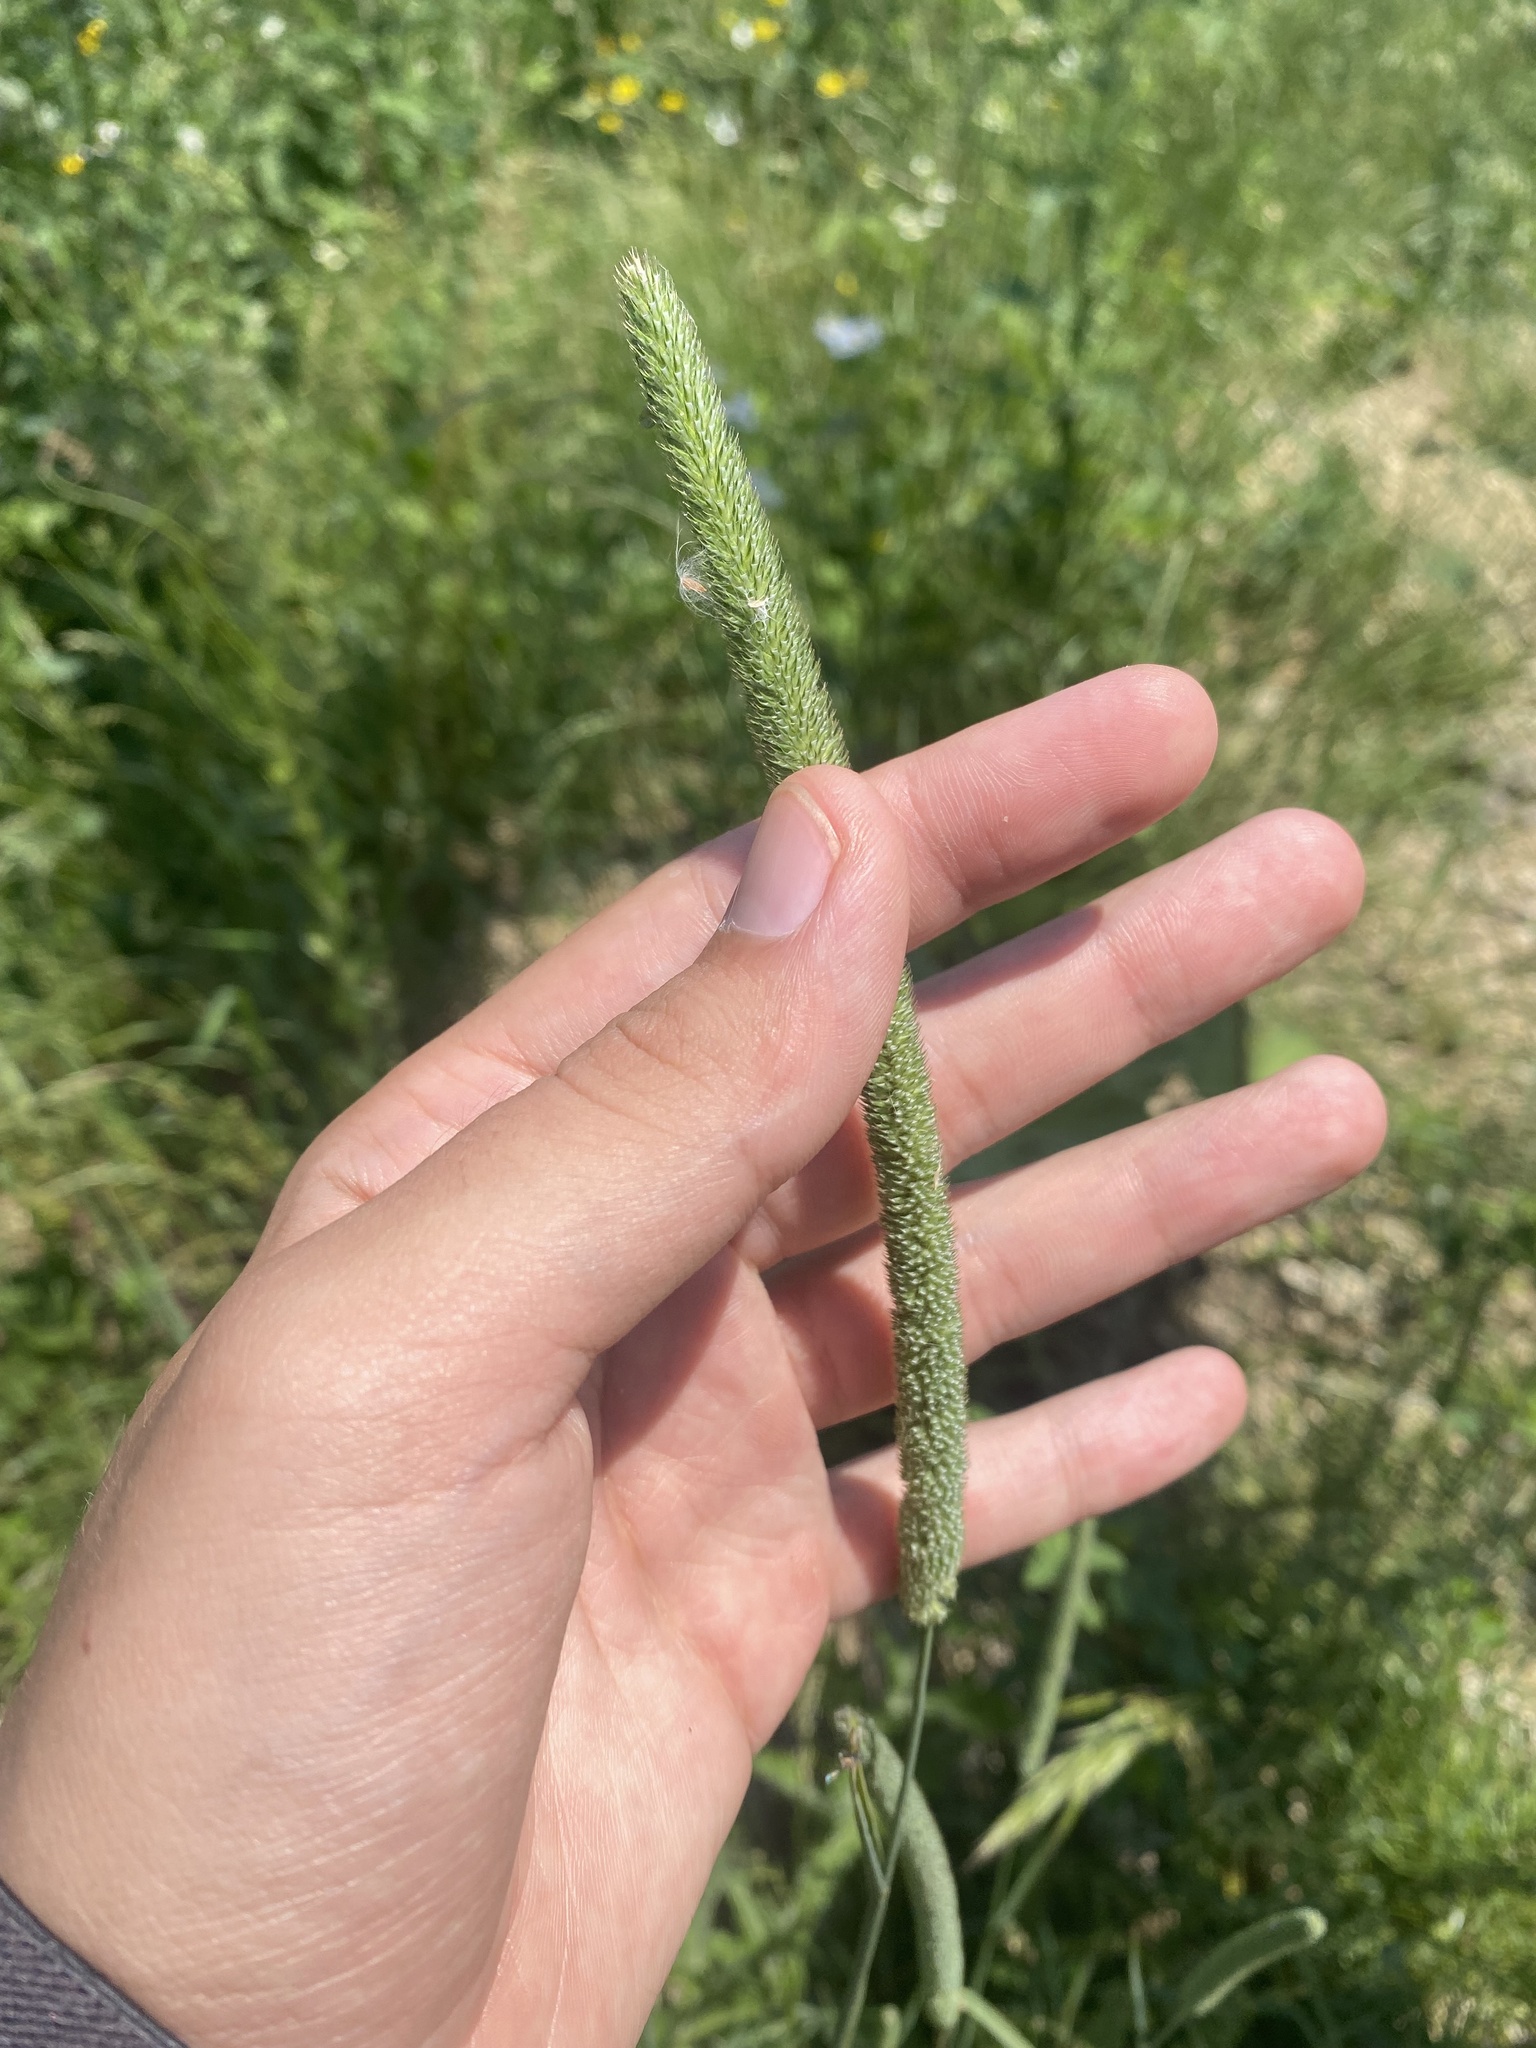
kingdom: Plantae
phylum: Tracheophyta
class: Liliopsida
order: Poales
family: Poaceae
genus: Phleum
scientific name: Phleum pratense
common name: Timothy grass
